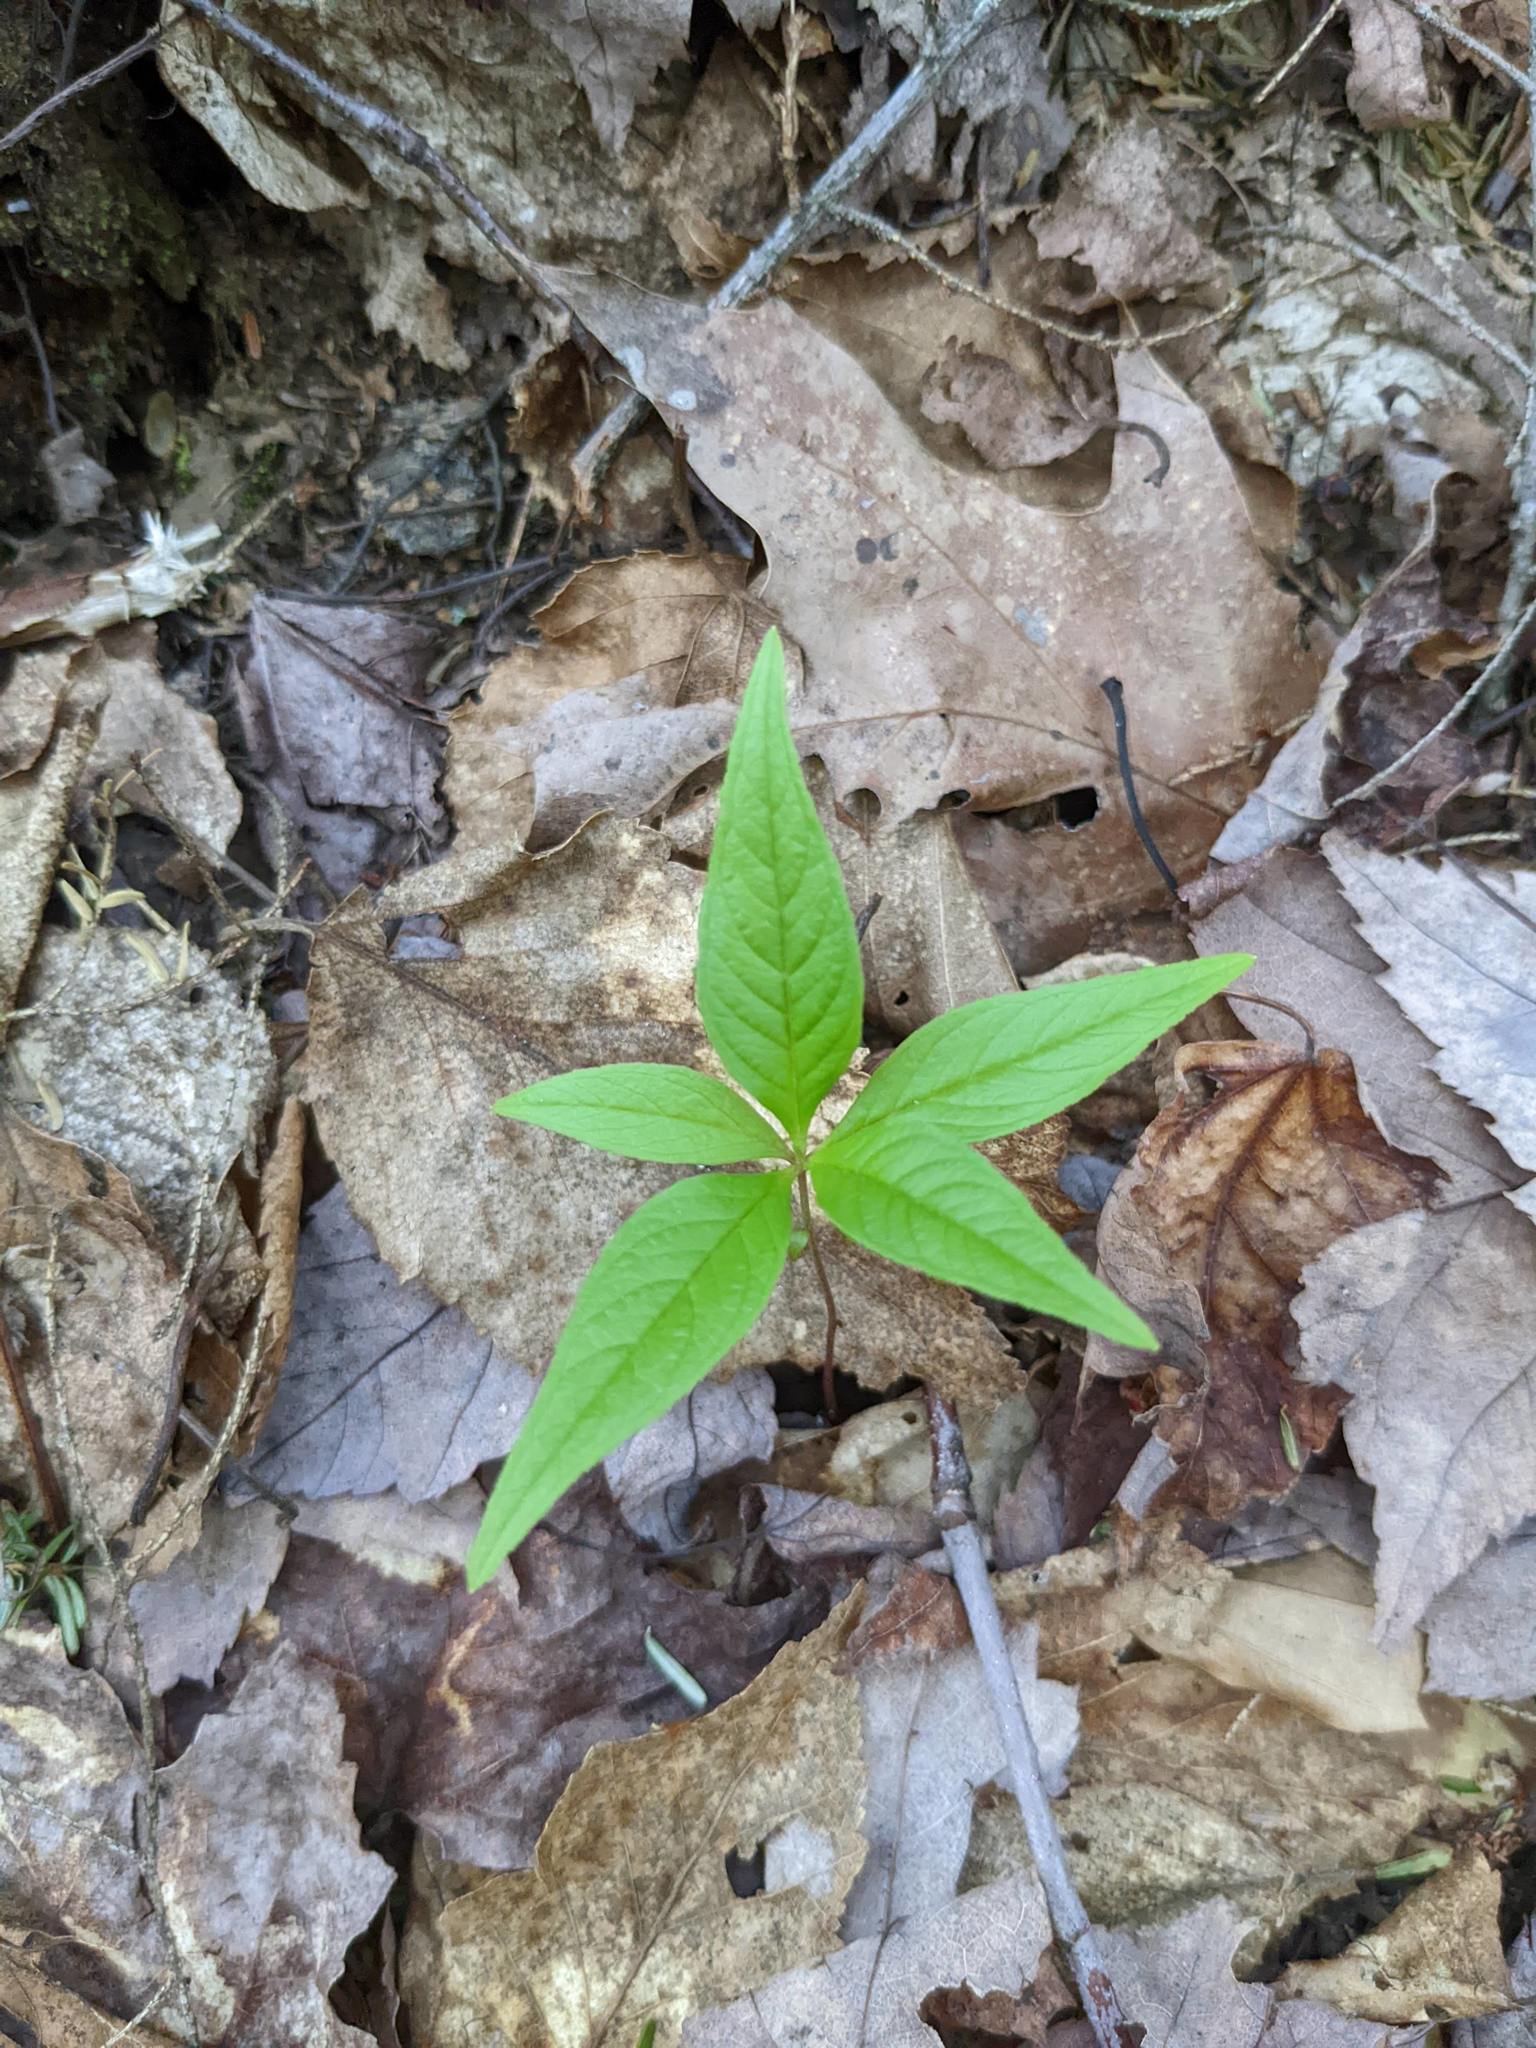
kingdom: Plantae
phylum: Tracheophyta
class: Magnoliopsida
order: Ericales
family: Primulaceae
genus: Lysimachia
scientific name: Lysimachia borealis
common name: American starflower
